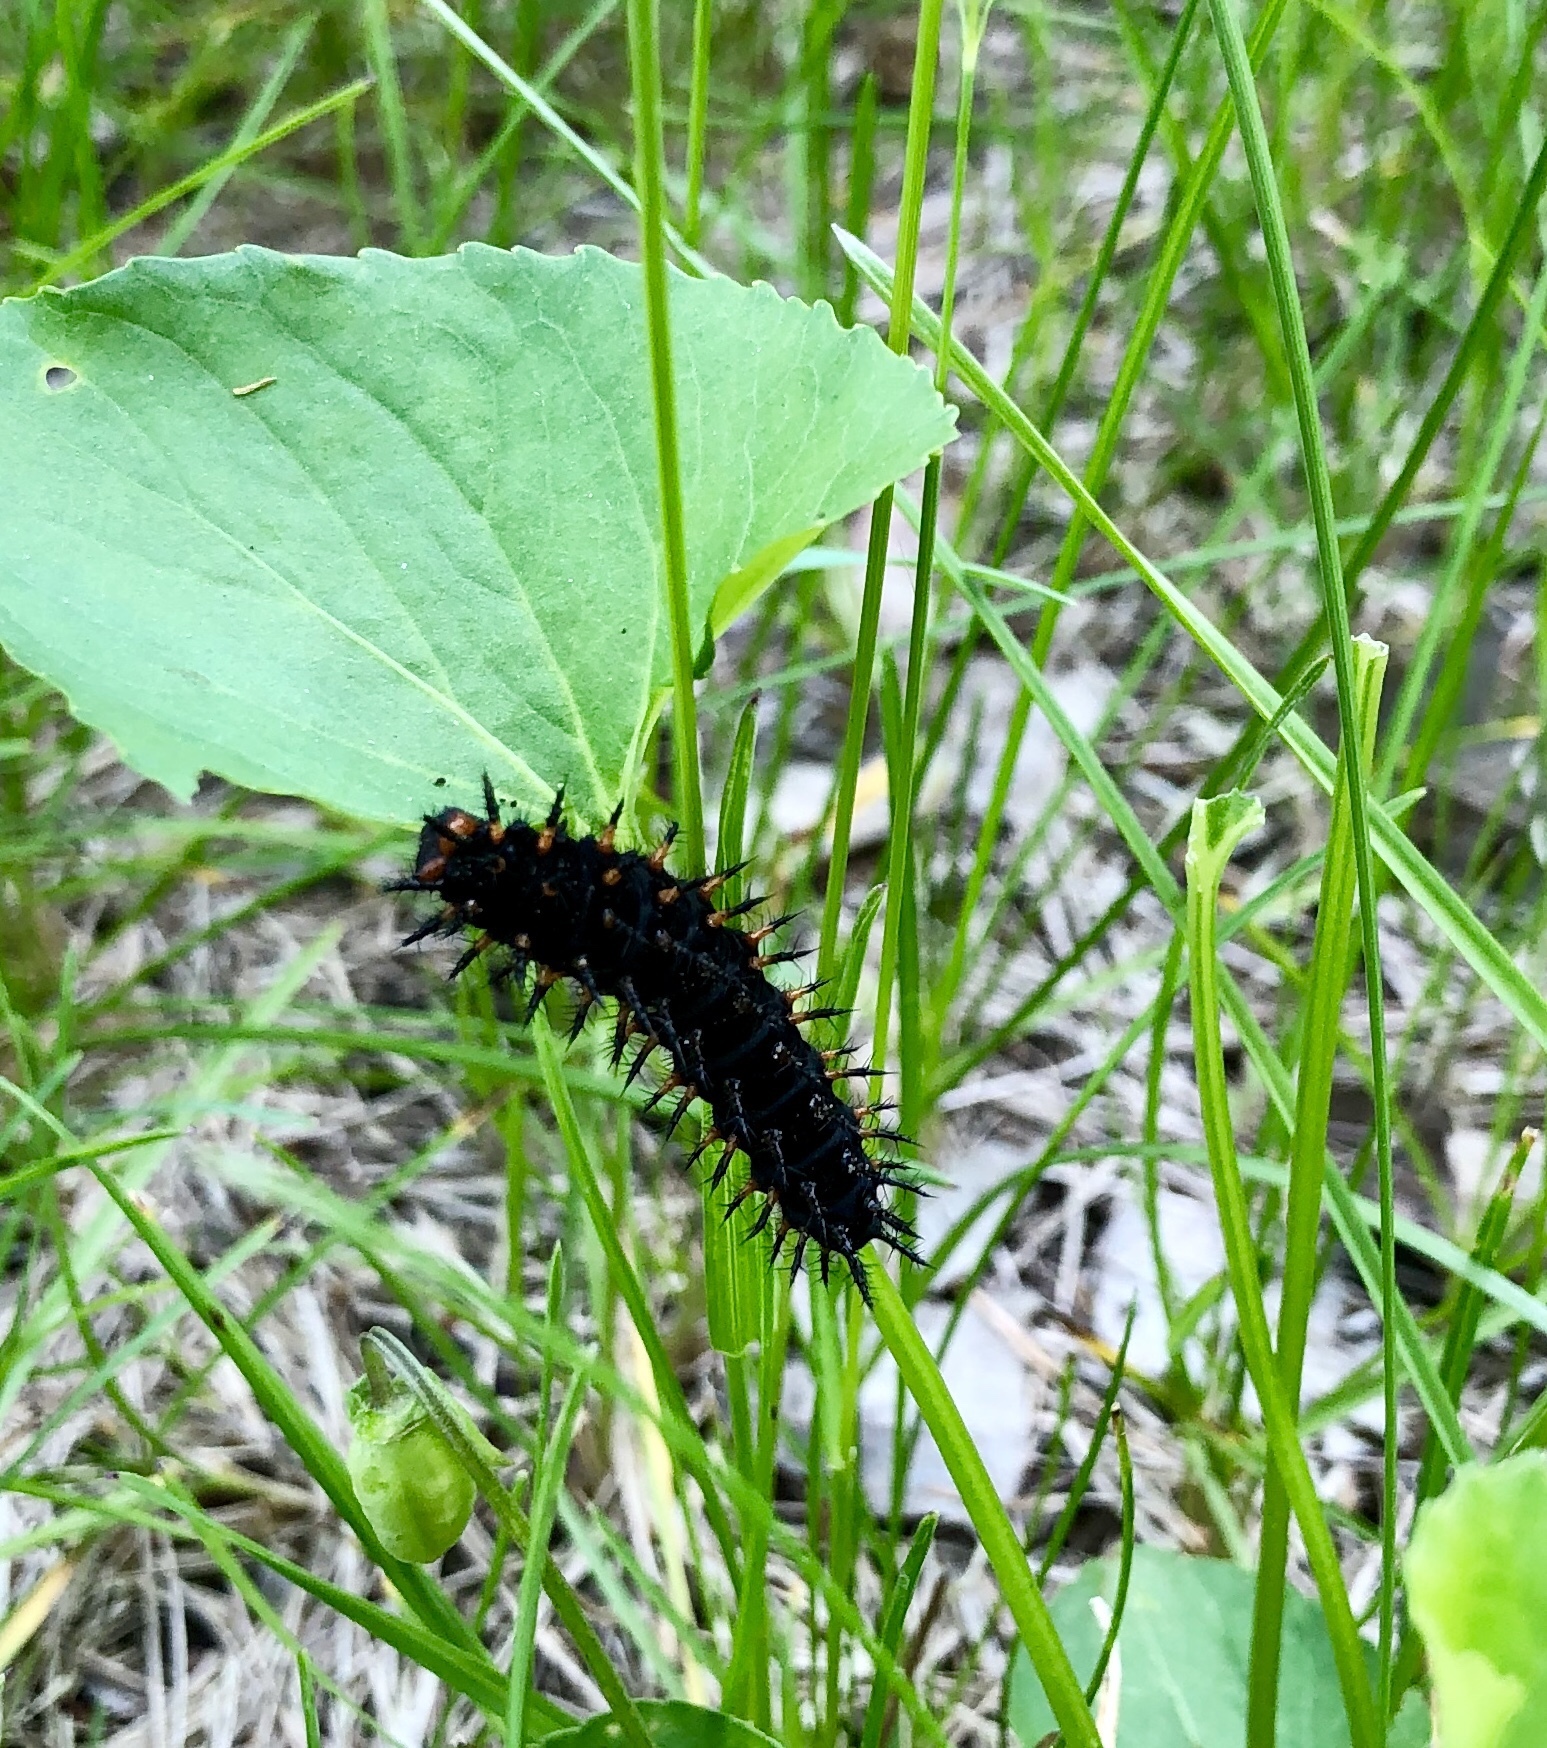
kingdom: Animalia
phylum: Arthropoda
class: Insecta
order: Lepidoptera
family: Nymphalidae
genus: Speyeria
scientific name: Speyeria cybele
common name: Great spangled fritillary
